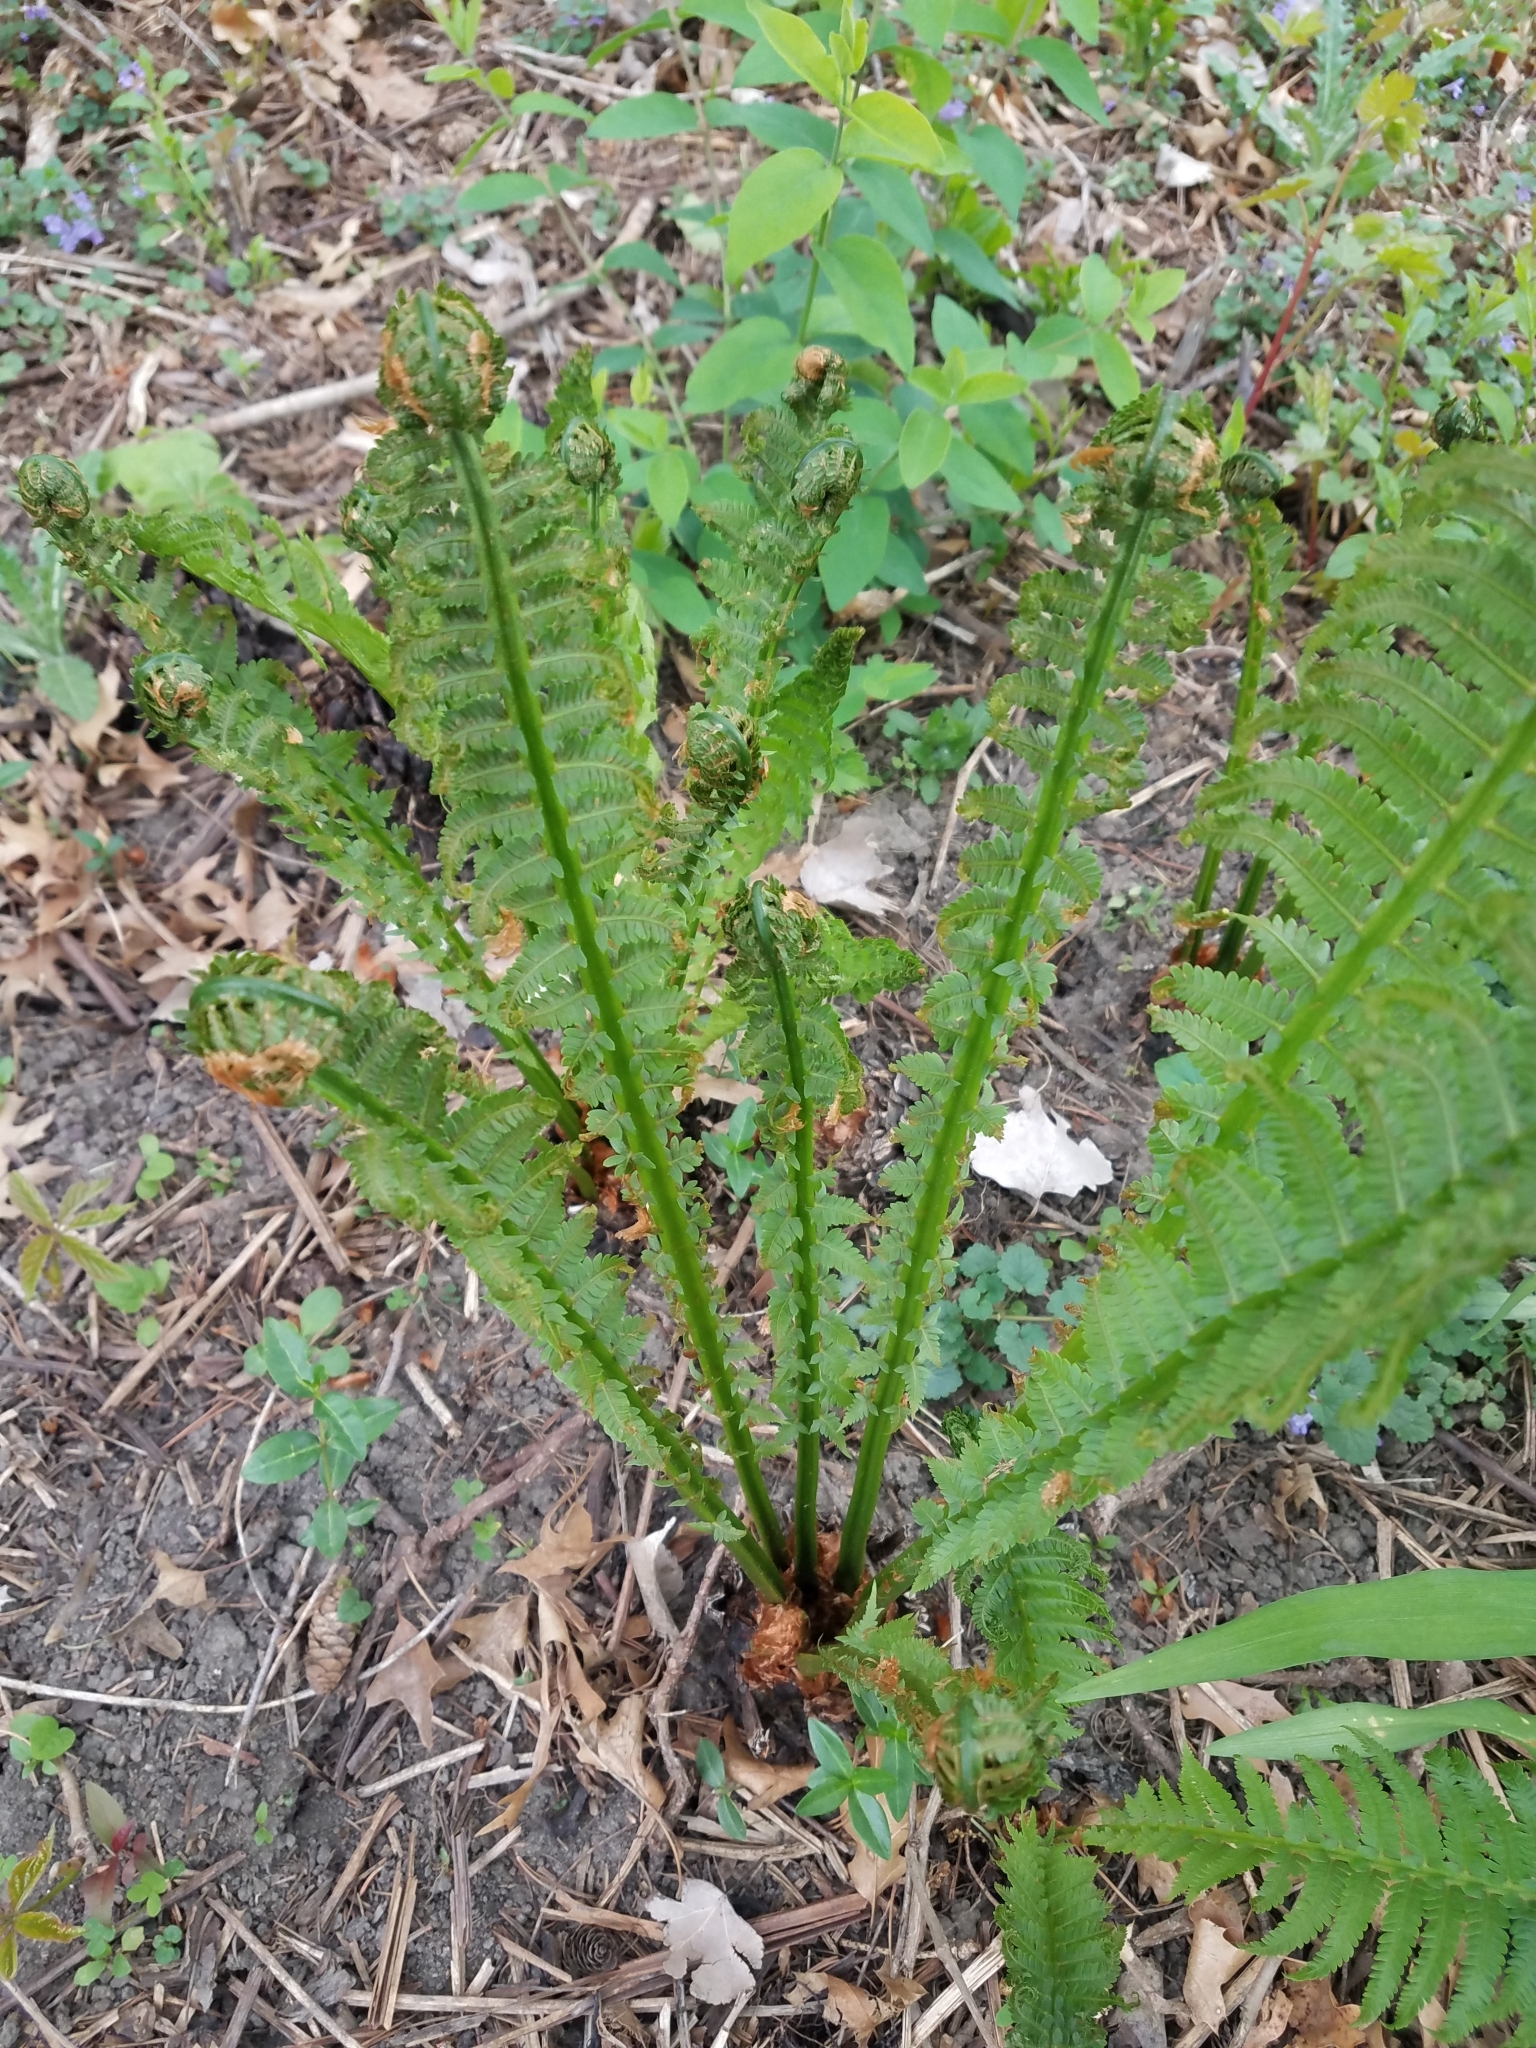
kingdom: Plantae
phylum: Tracheophyta
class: Polypodiopsida
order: Polypodiales
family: Onocleaceae
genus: Matteuccia
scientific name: Matteuccia struthiopteris
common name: Ostrich fern
